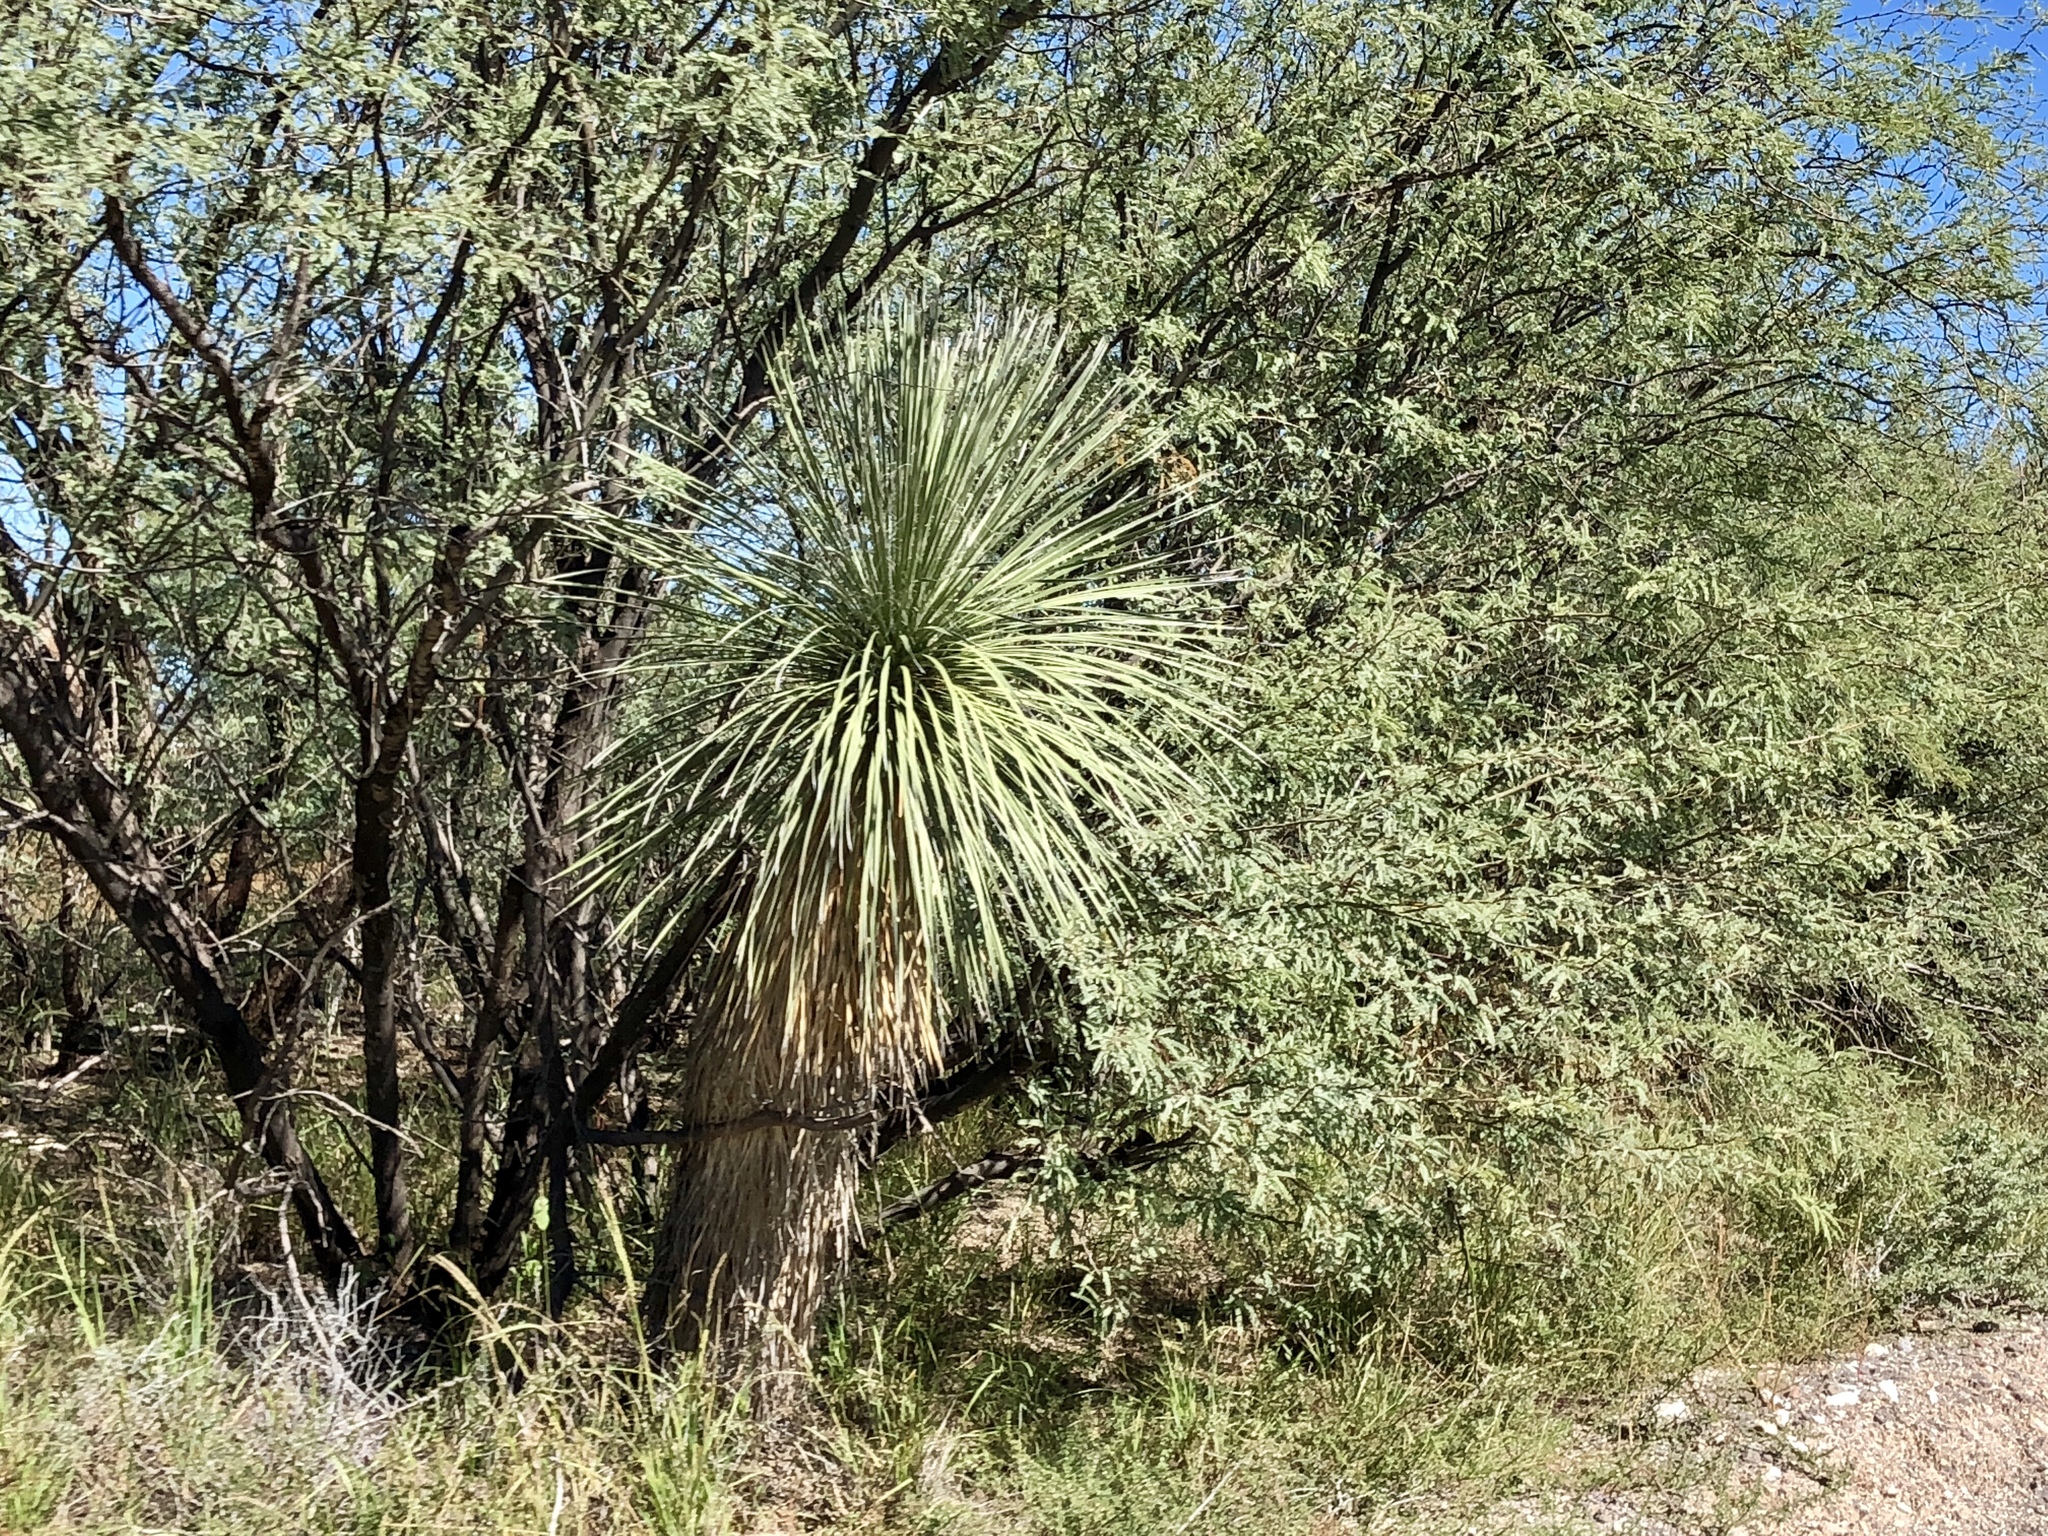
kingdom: Plantae
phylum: Tracheophyta
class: Liliopsida
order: Asparagales
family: Asparagaceae
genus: Yucca
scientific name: Yucca elata
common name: Palmella
